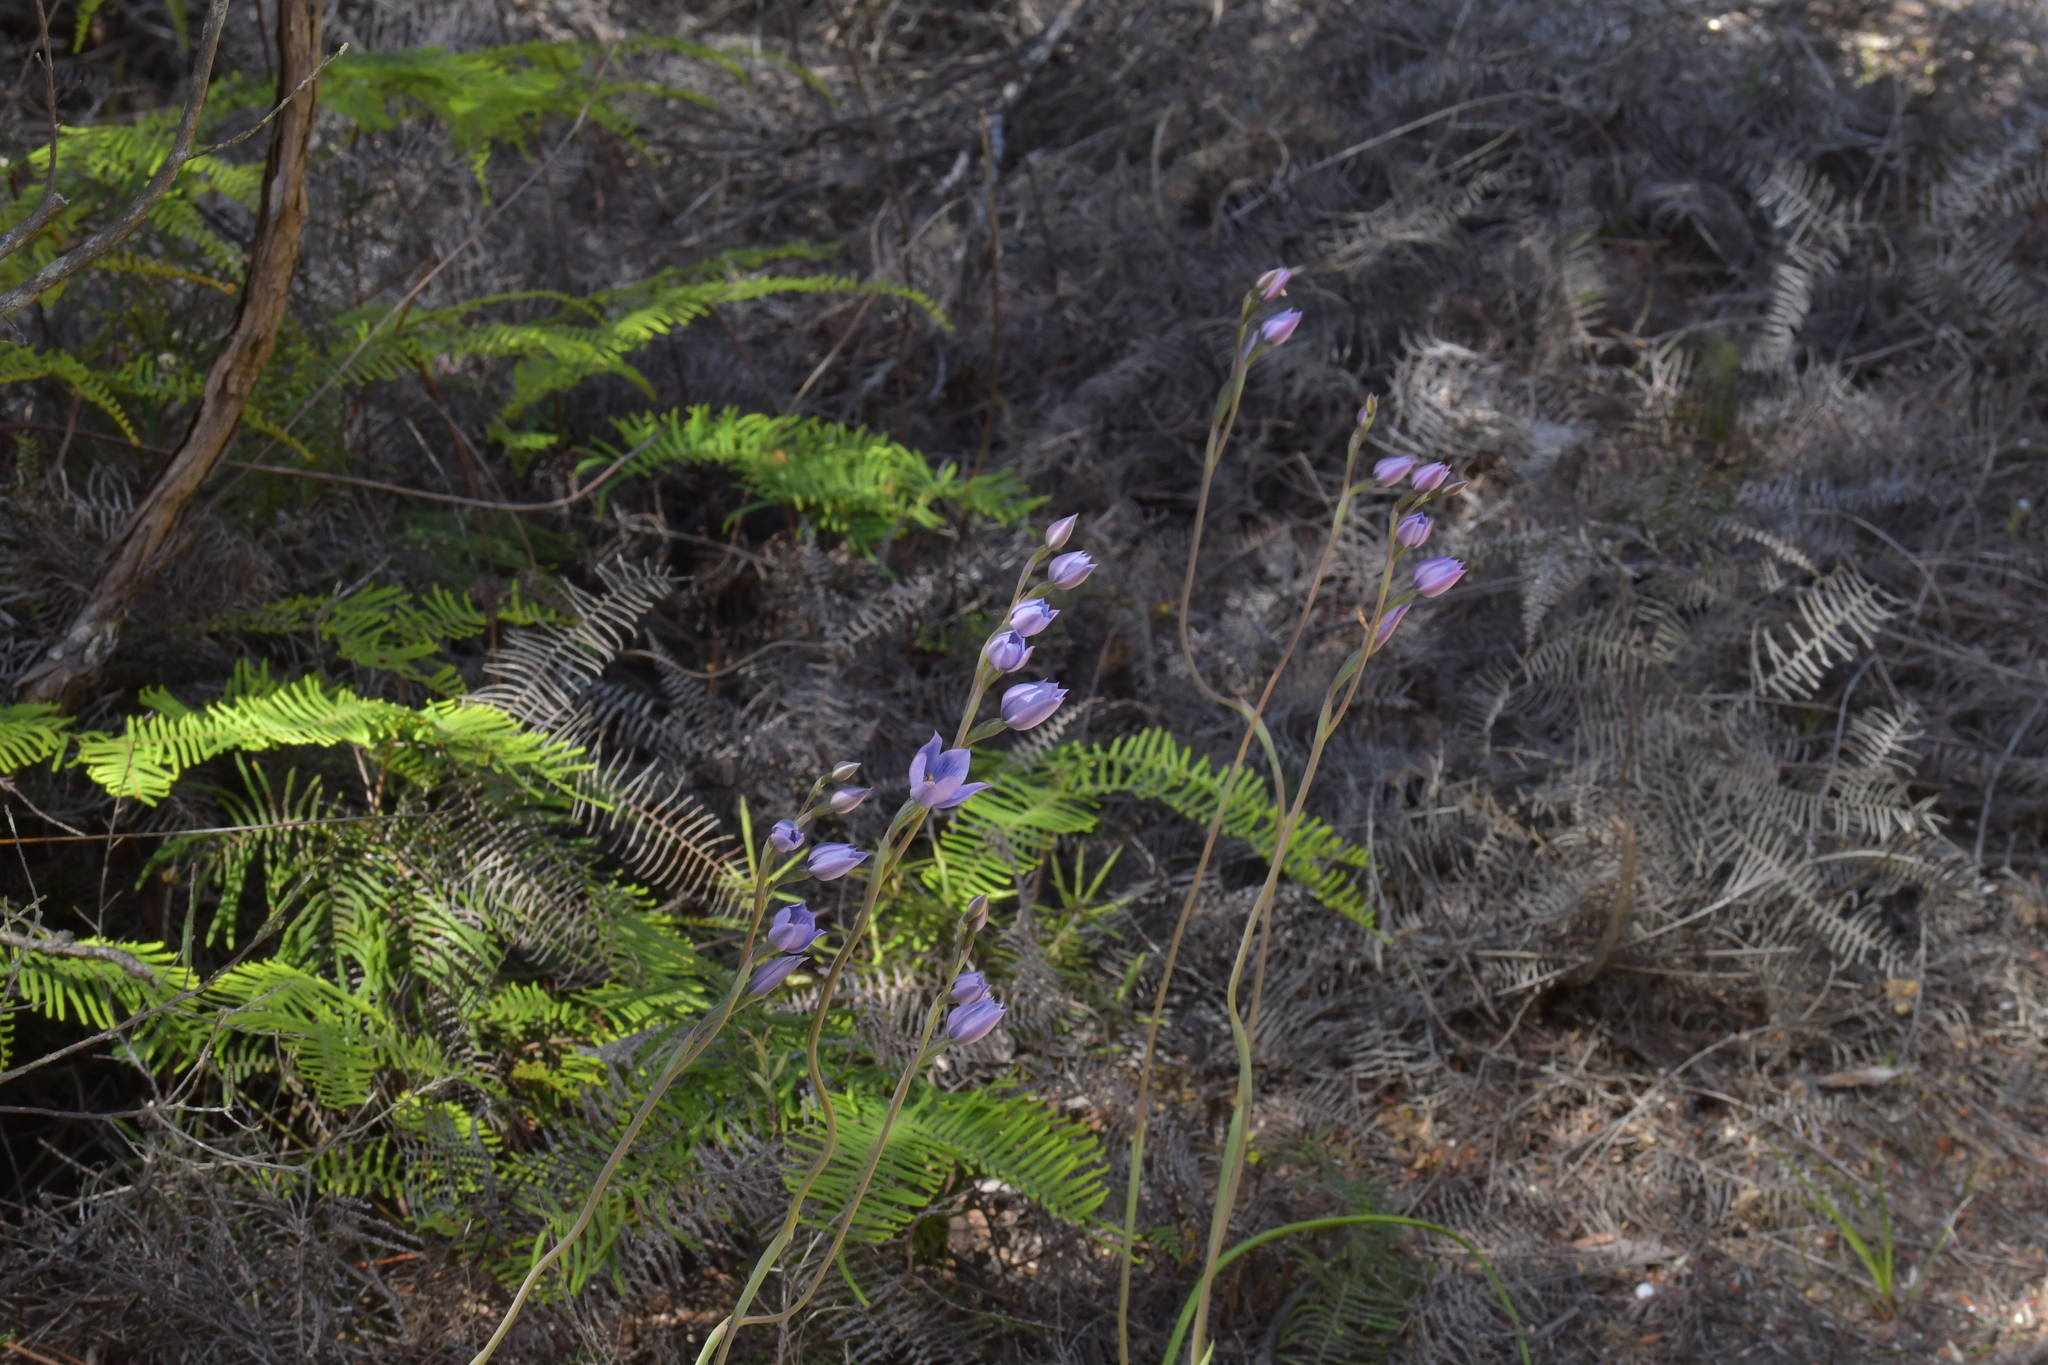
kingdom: Plantae
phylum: Tracheophyta
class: Liliopsida
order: Asparagales
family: Orchidaceae
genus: Thelymitra
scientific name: Thelymitra pulchella
